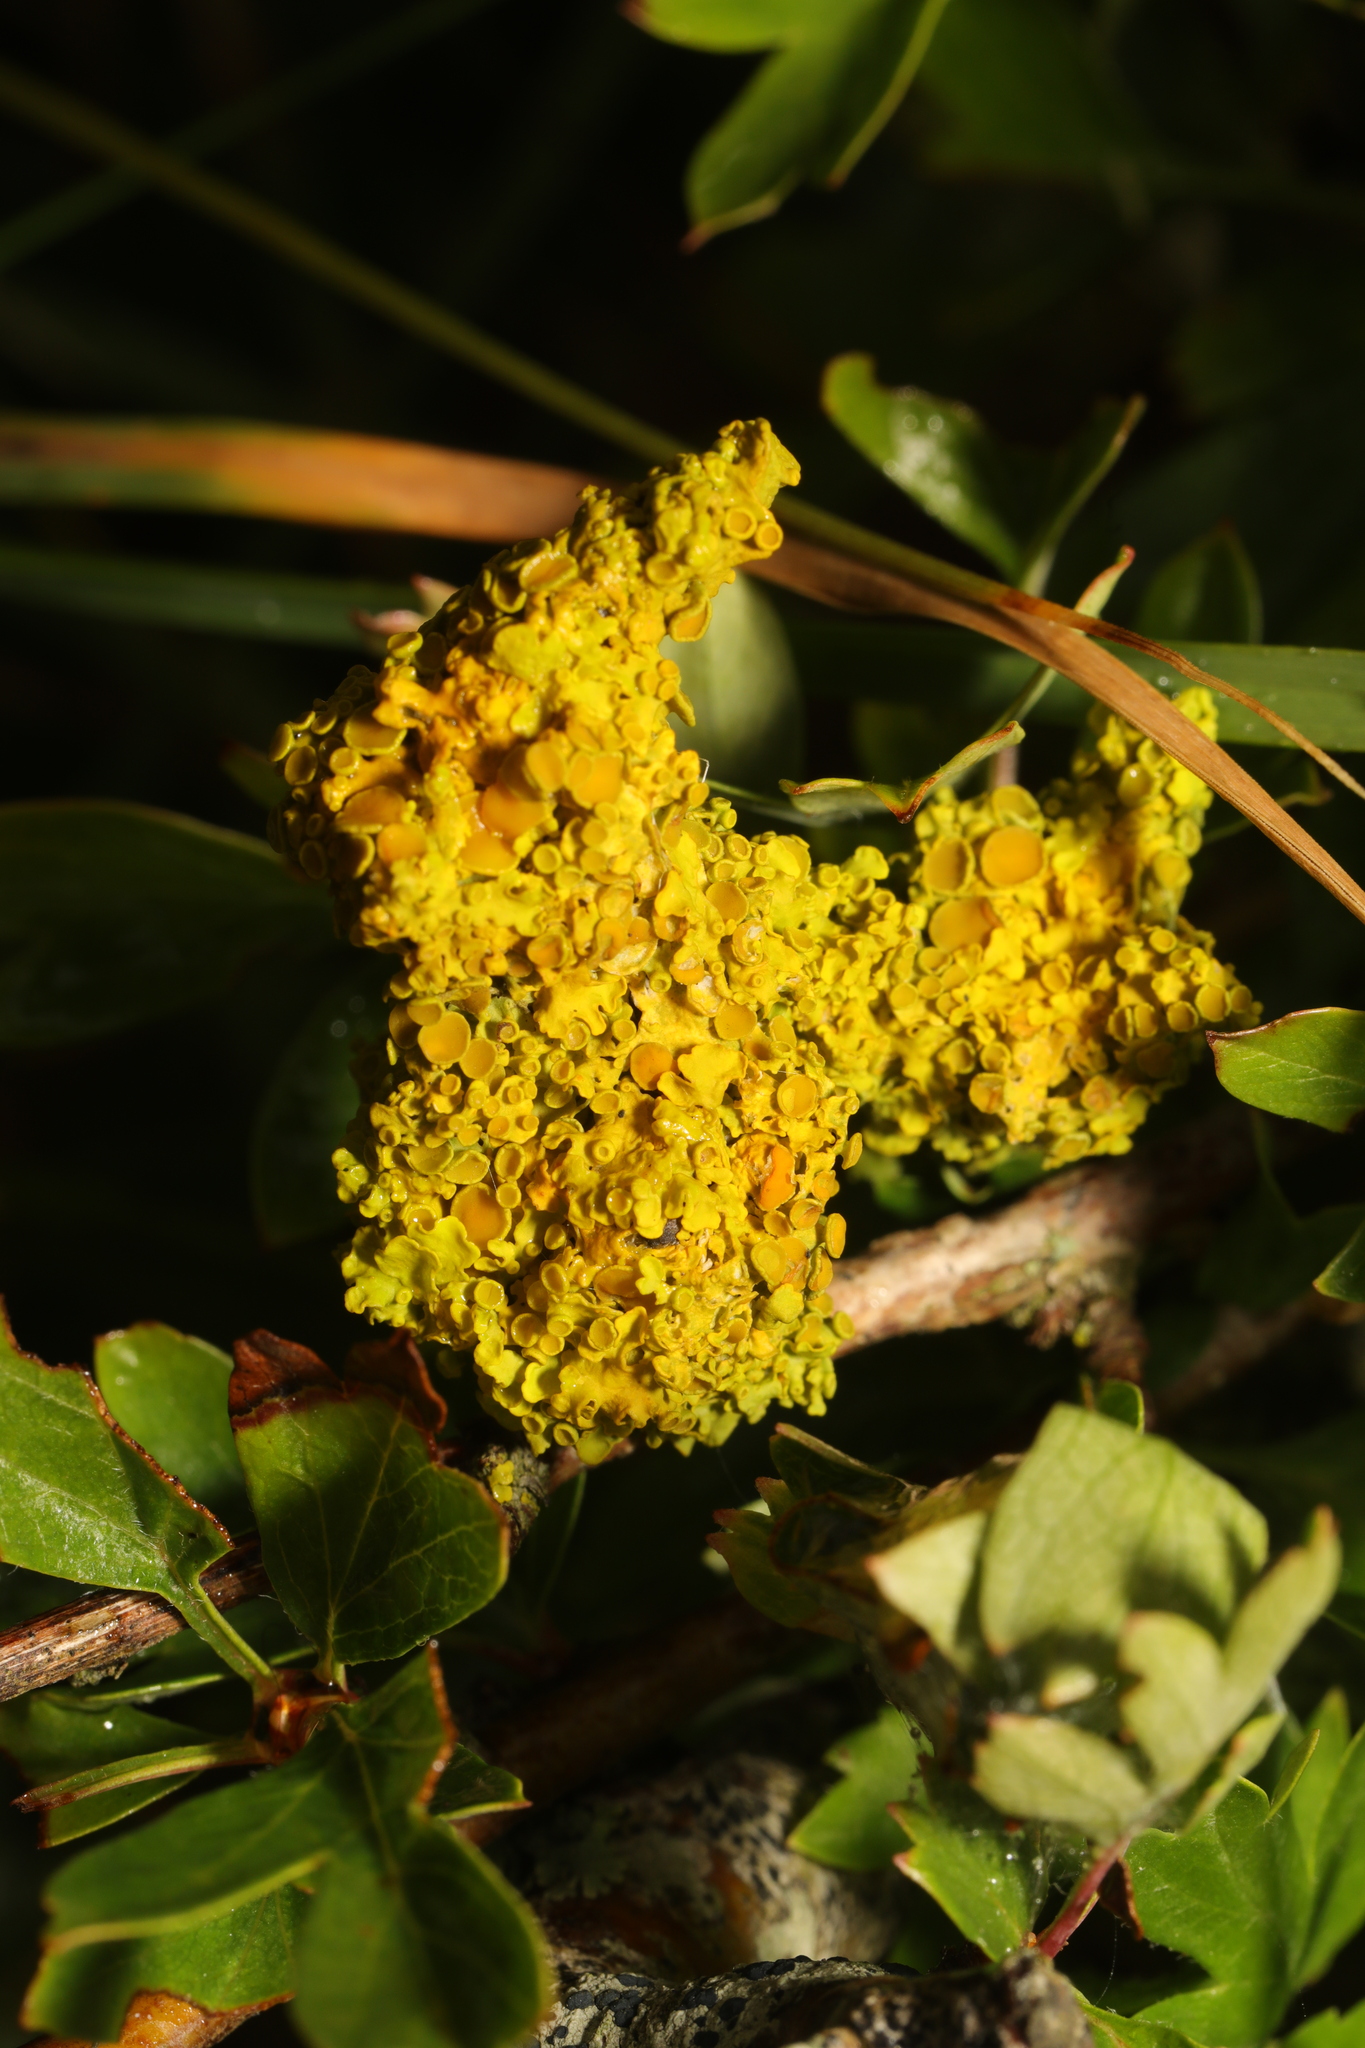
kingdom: Fungi
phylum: Ascomycota
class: Lecanoromycetes
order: Teloschistales
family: Teloschistaceae
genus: Xanthoria
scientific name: Xanthoria parietina
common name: Common orange lichen
